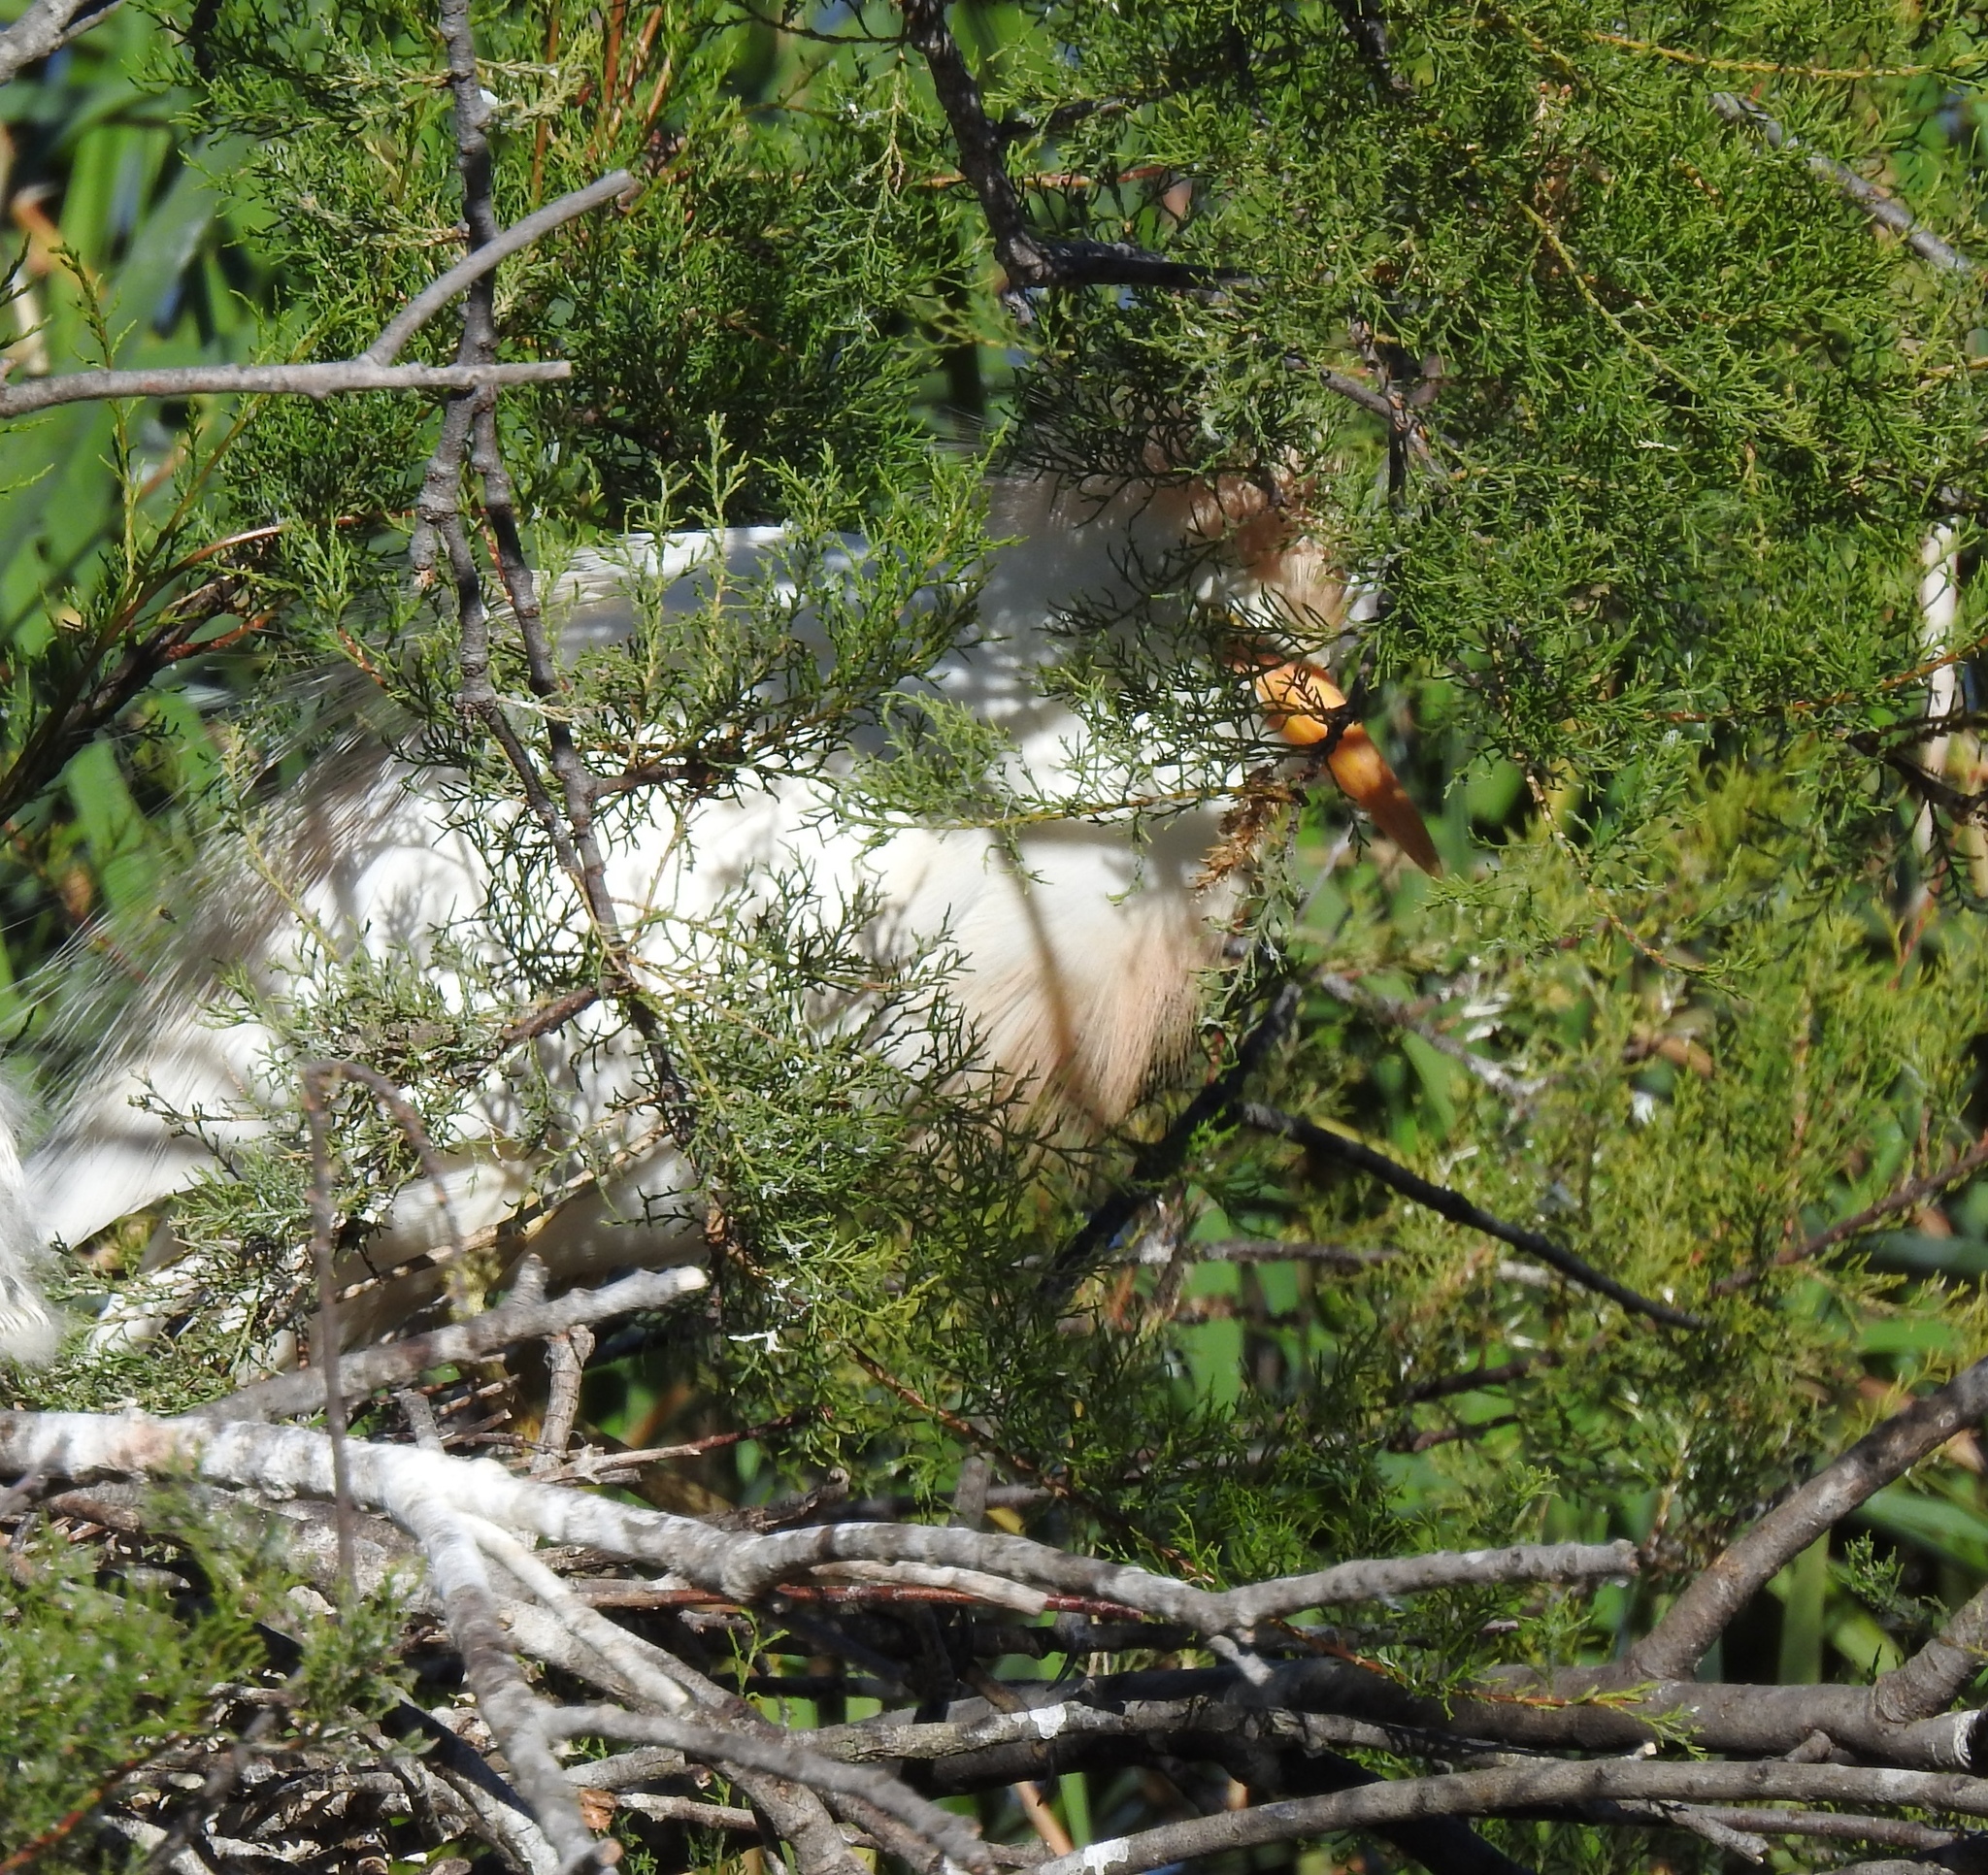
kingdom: Animalia
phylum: Chordata
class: Aves
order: Pelecaniformes
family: Ardeidae
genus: Bubulcus
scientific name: Bubulcus ibis
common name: Cattle egret
